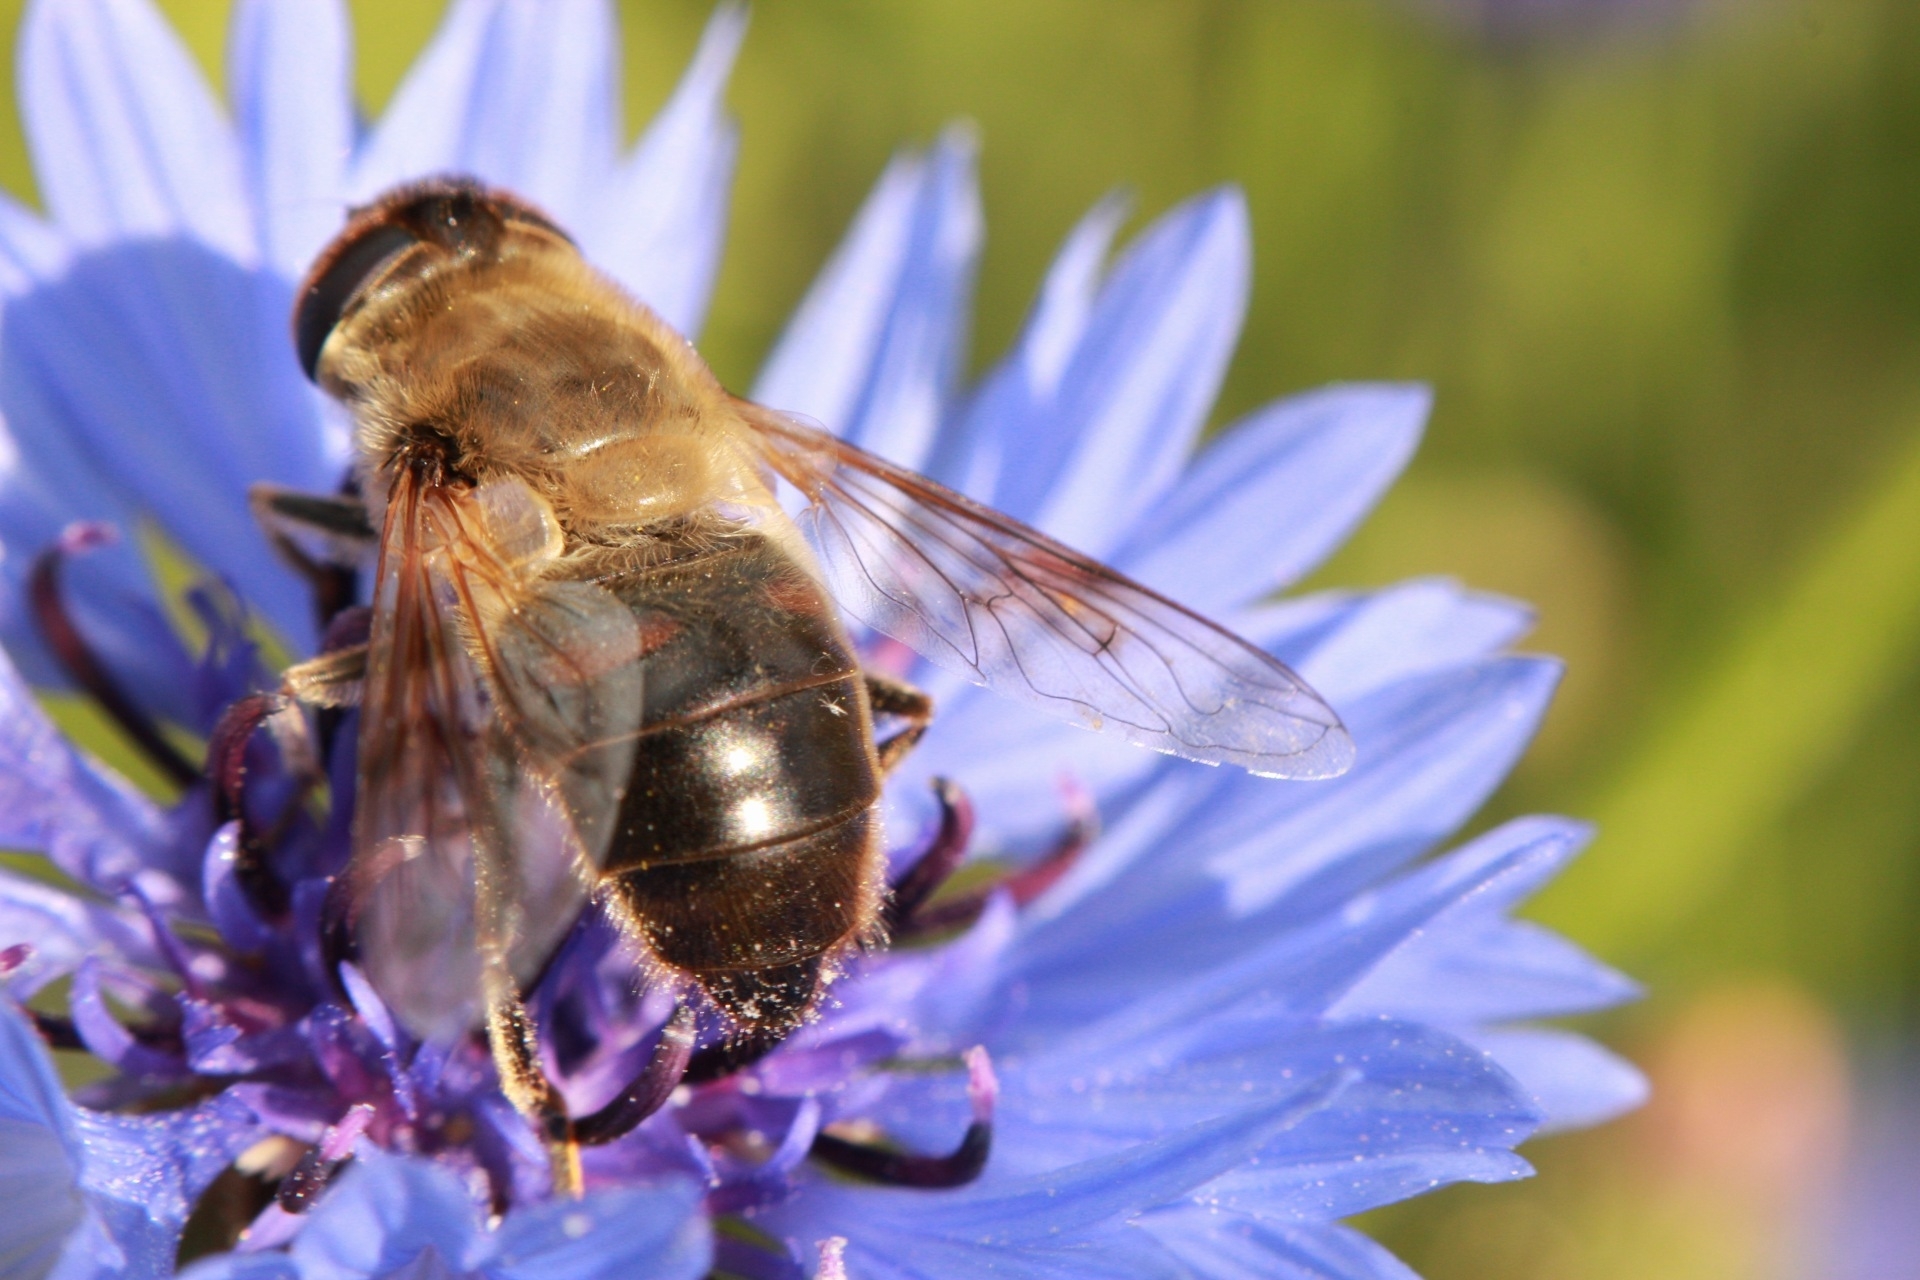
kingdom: Animalia
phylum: Arthropoda
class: Insecta
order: Diptera
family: Syrphidae
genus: Eristalis
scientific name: Eristalis tenax
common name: Drone fly
